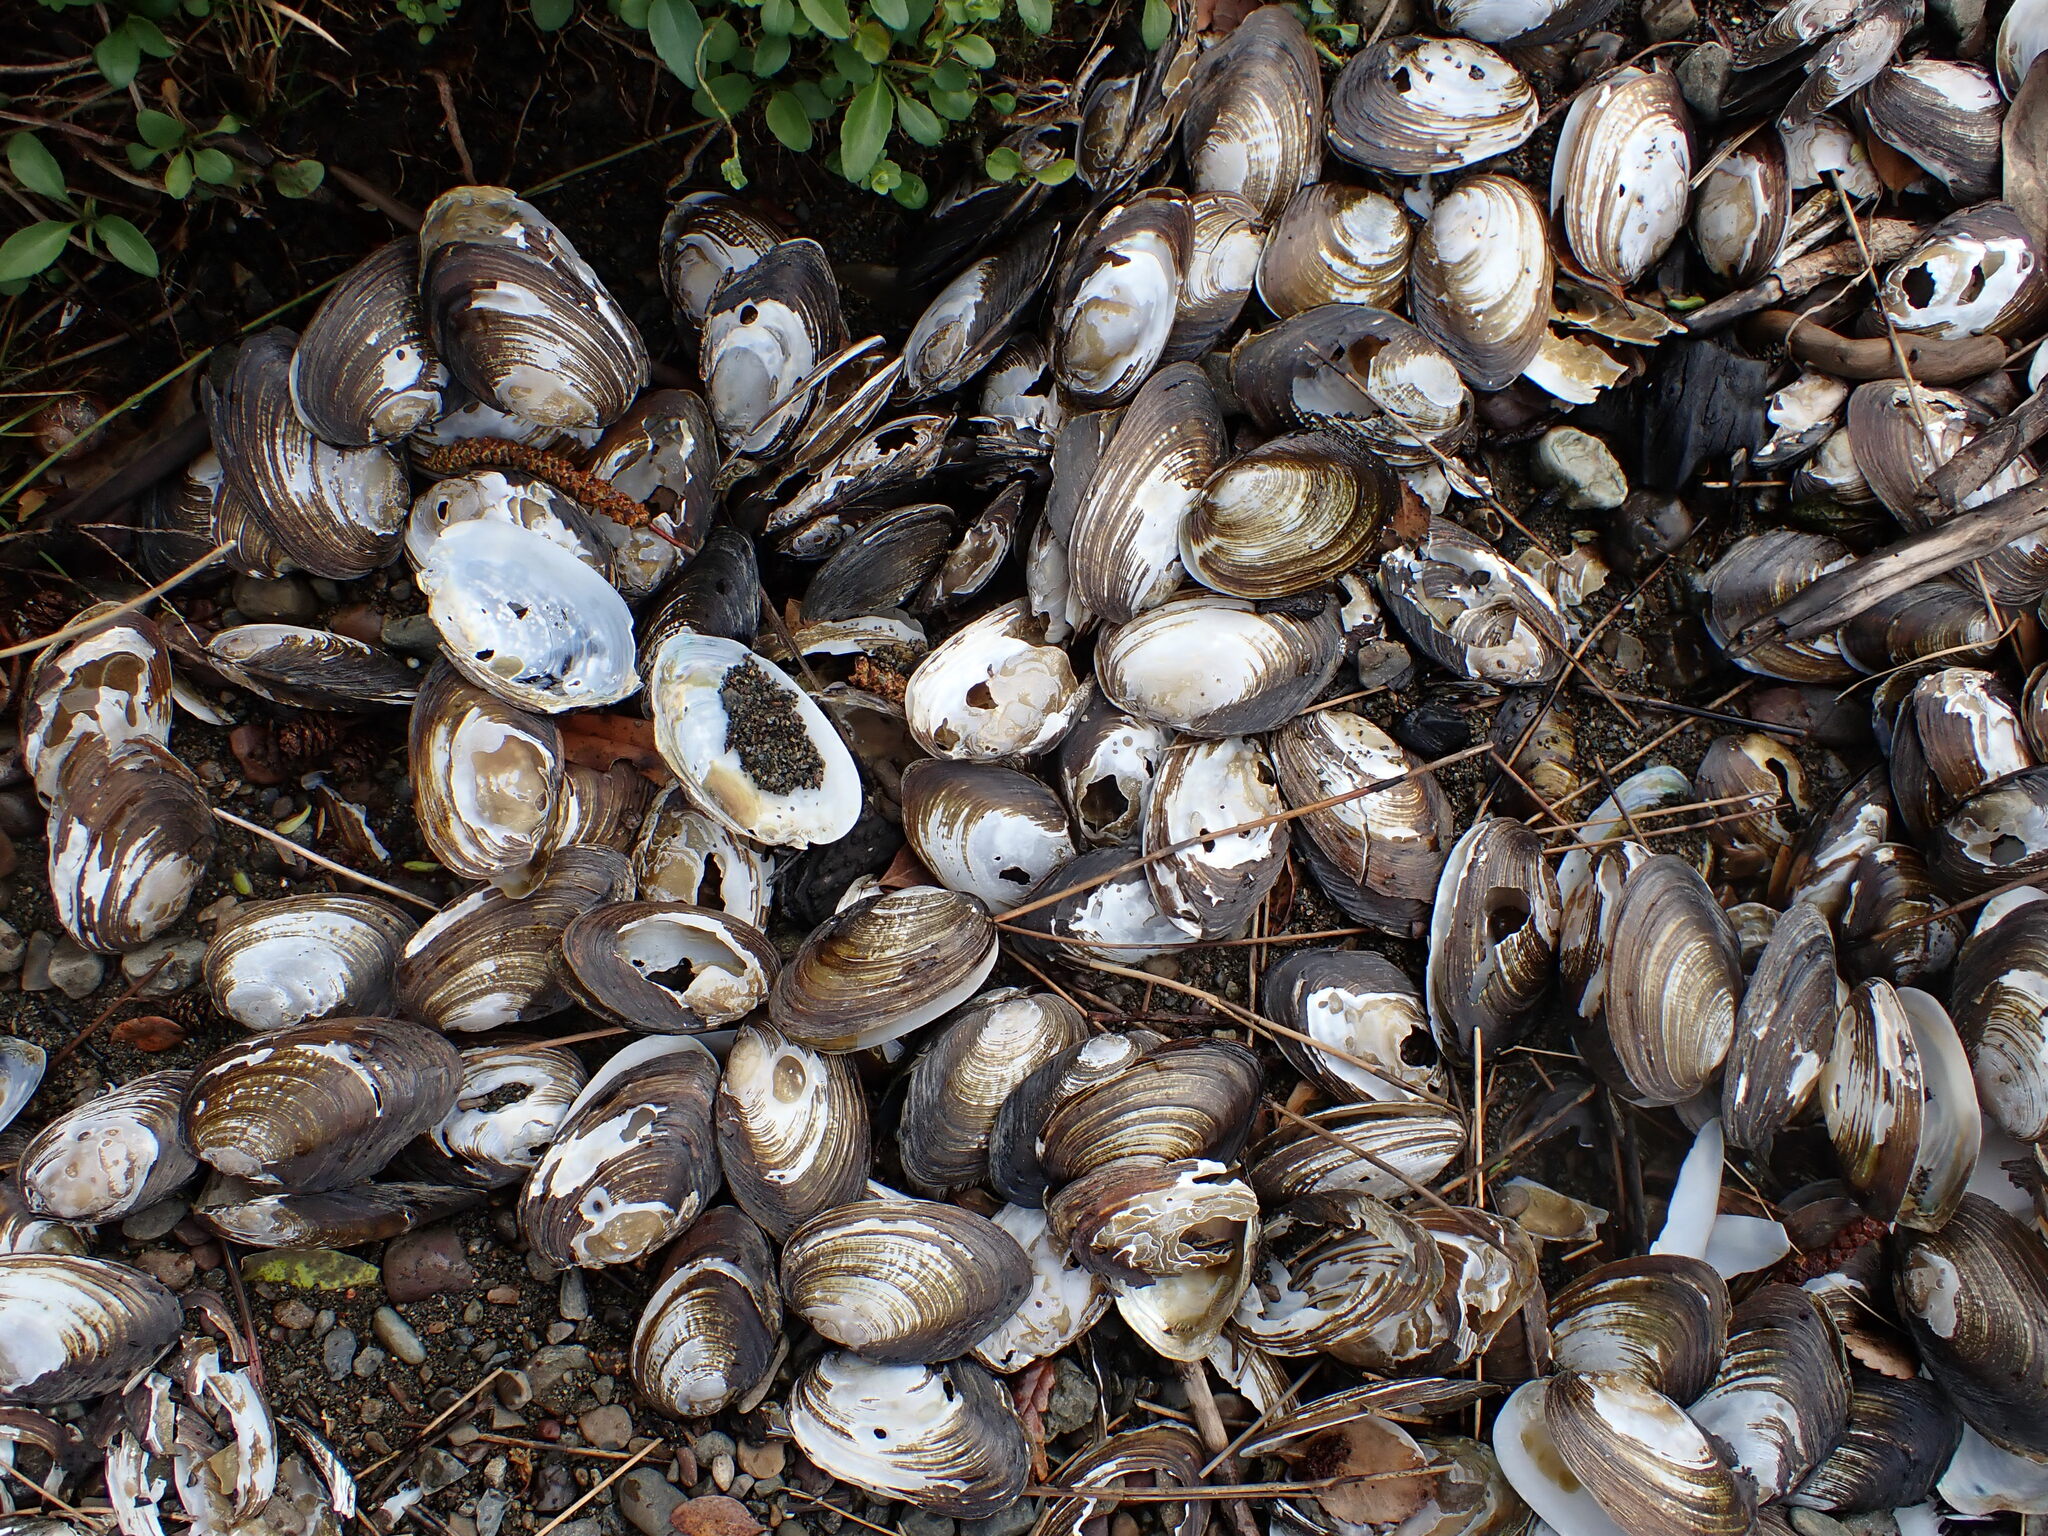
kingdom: Animalia
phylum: Mollusca
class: Bivalvia
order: Unionida
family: Hyriidae
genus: Echyridella
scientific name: Echyridella menziesii
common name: New zealand freshwater mussel
